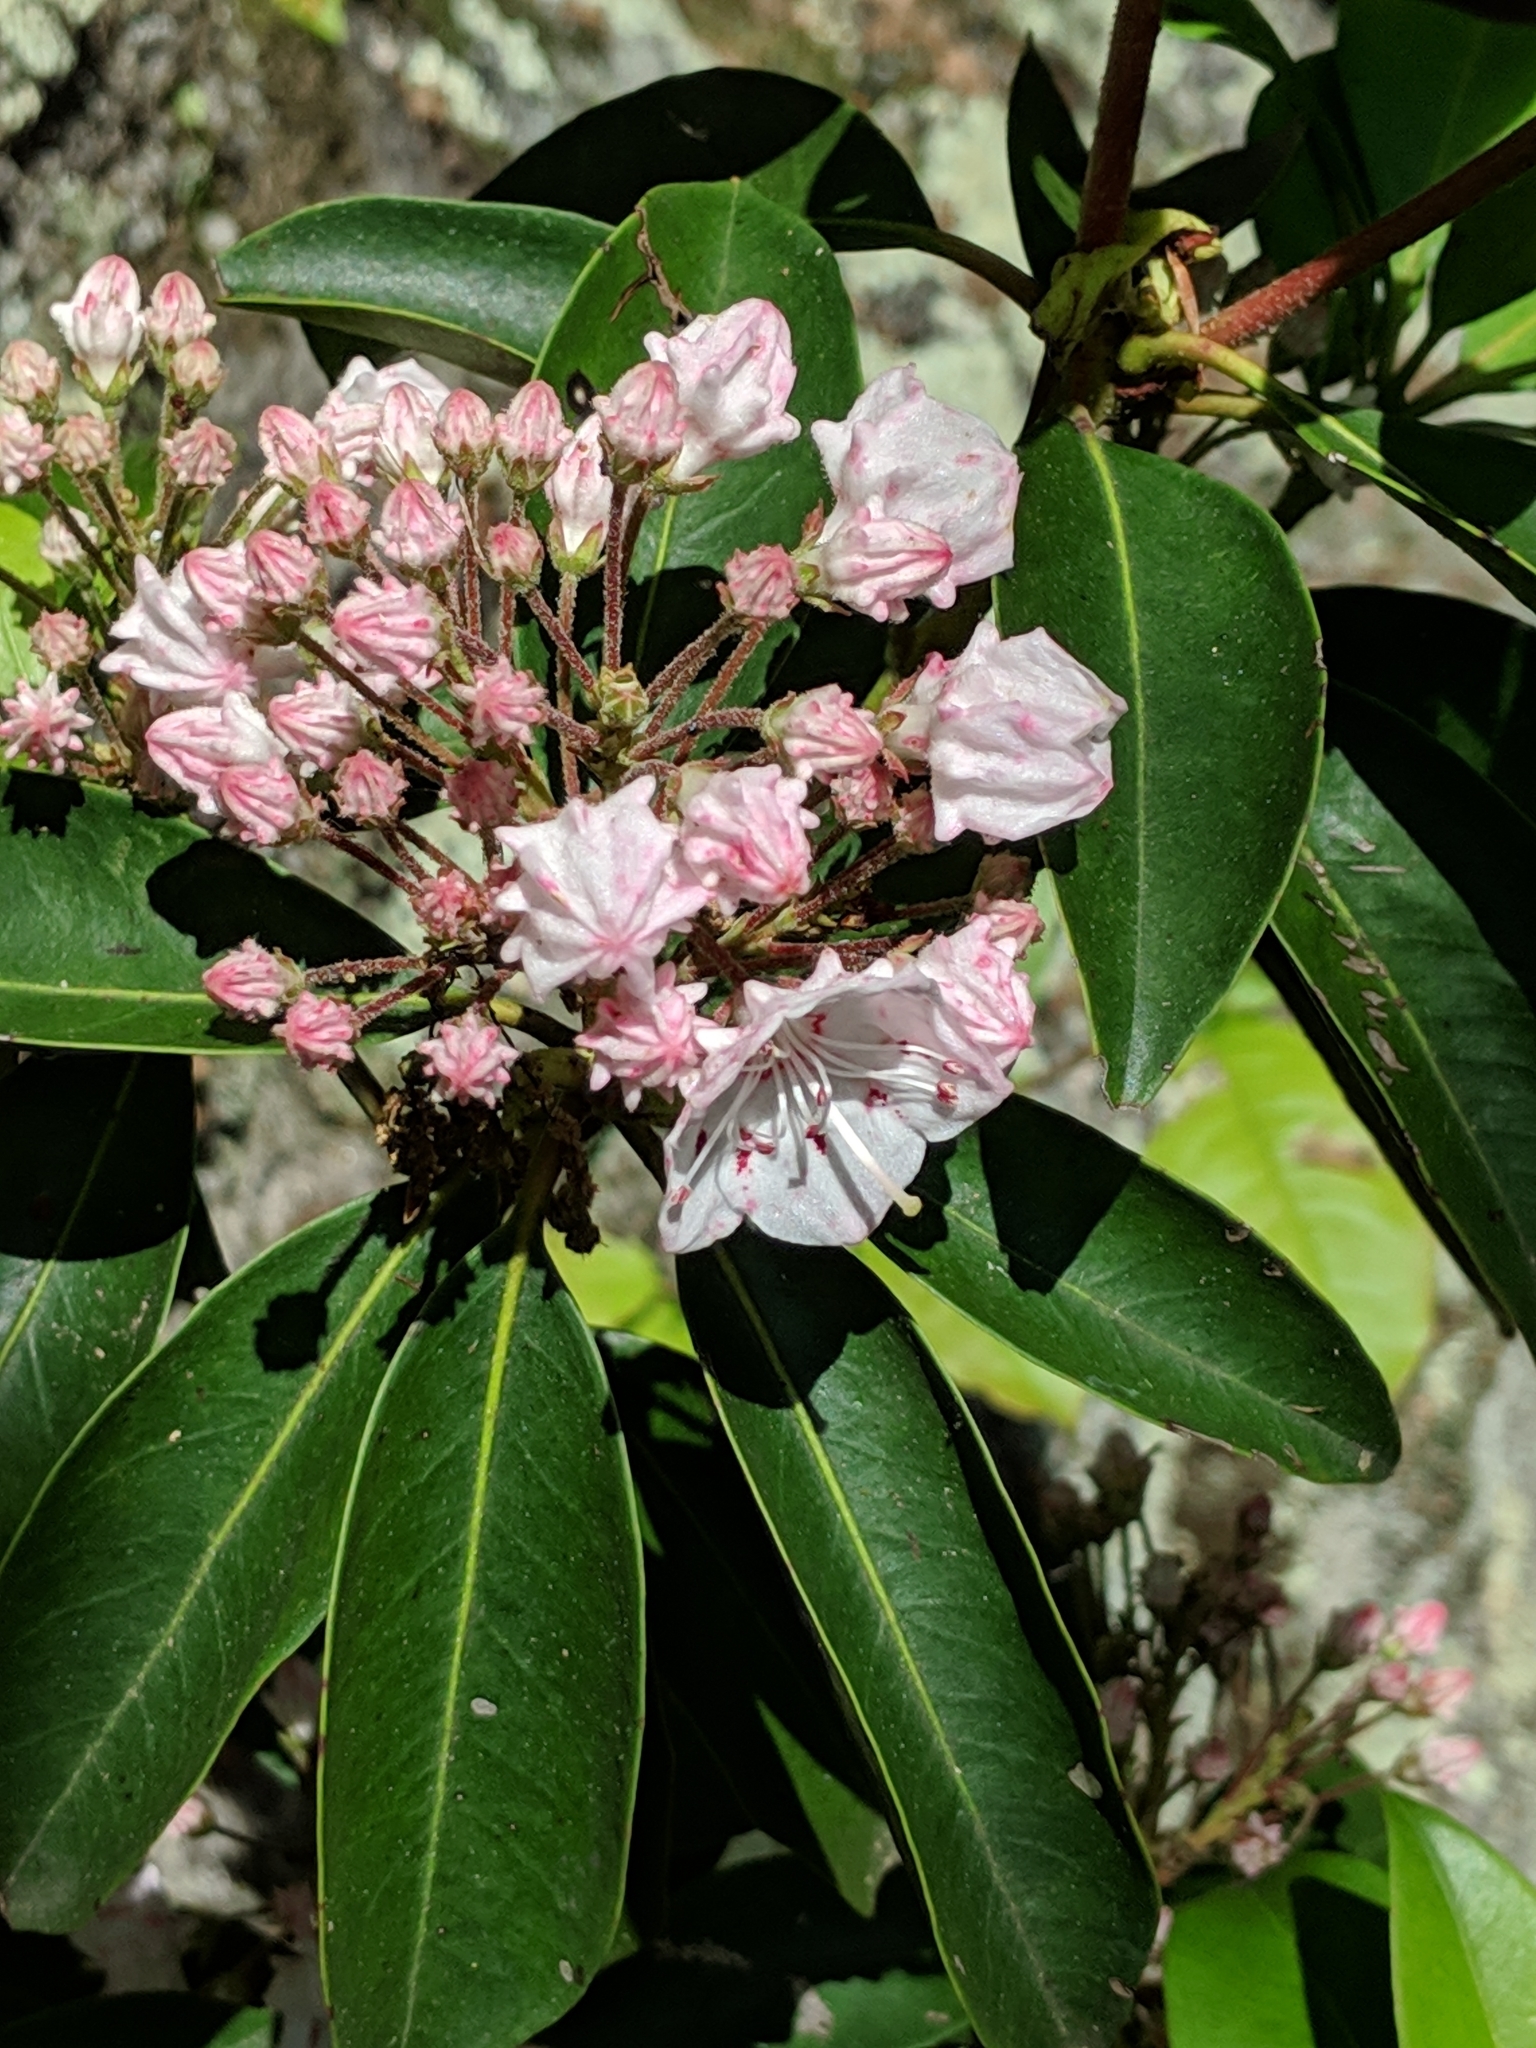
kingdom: Plantae
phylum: Tracheophyta
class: Magnoliopsida
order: Ericales
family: Ericaceae
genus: Kalmia
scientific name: Kalmia latifolia
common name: Mountain-laurel
